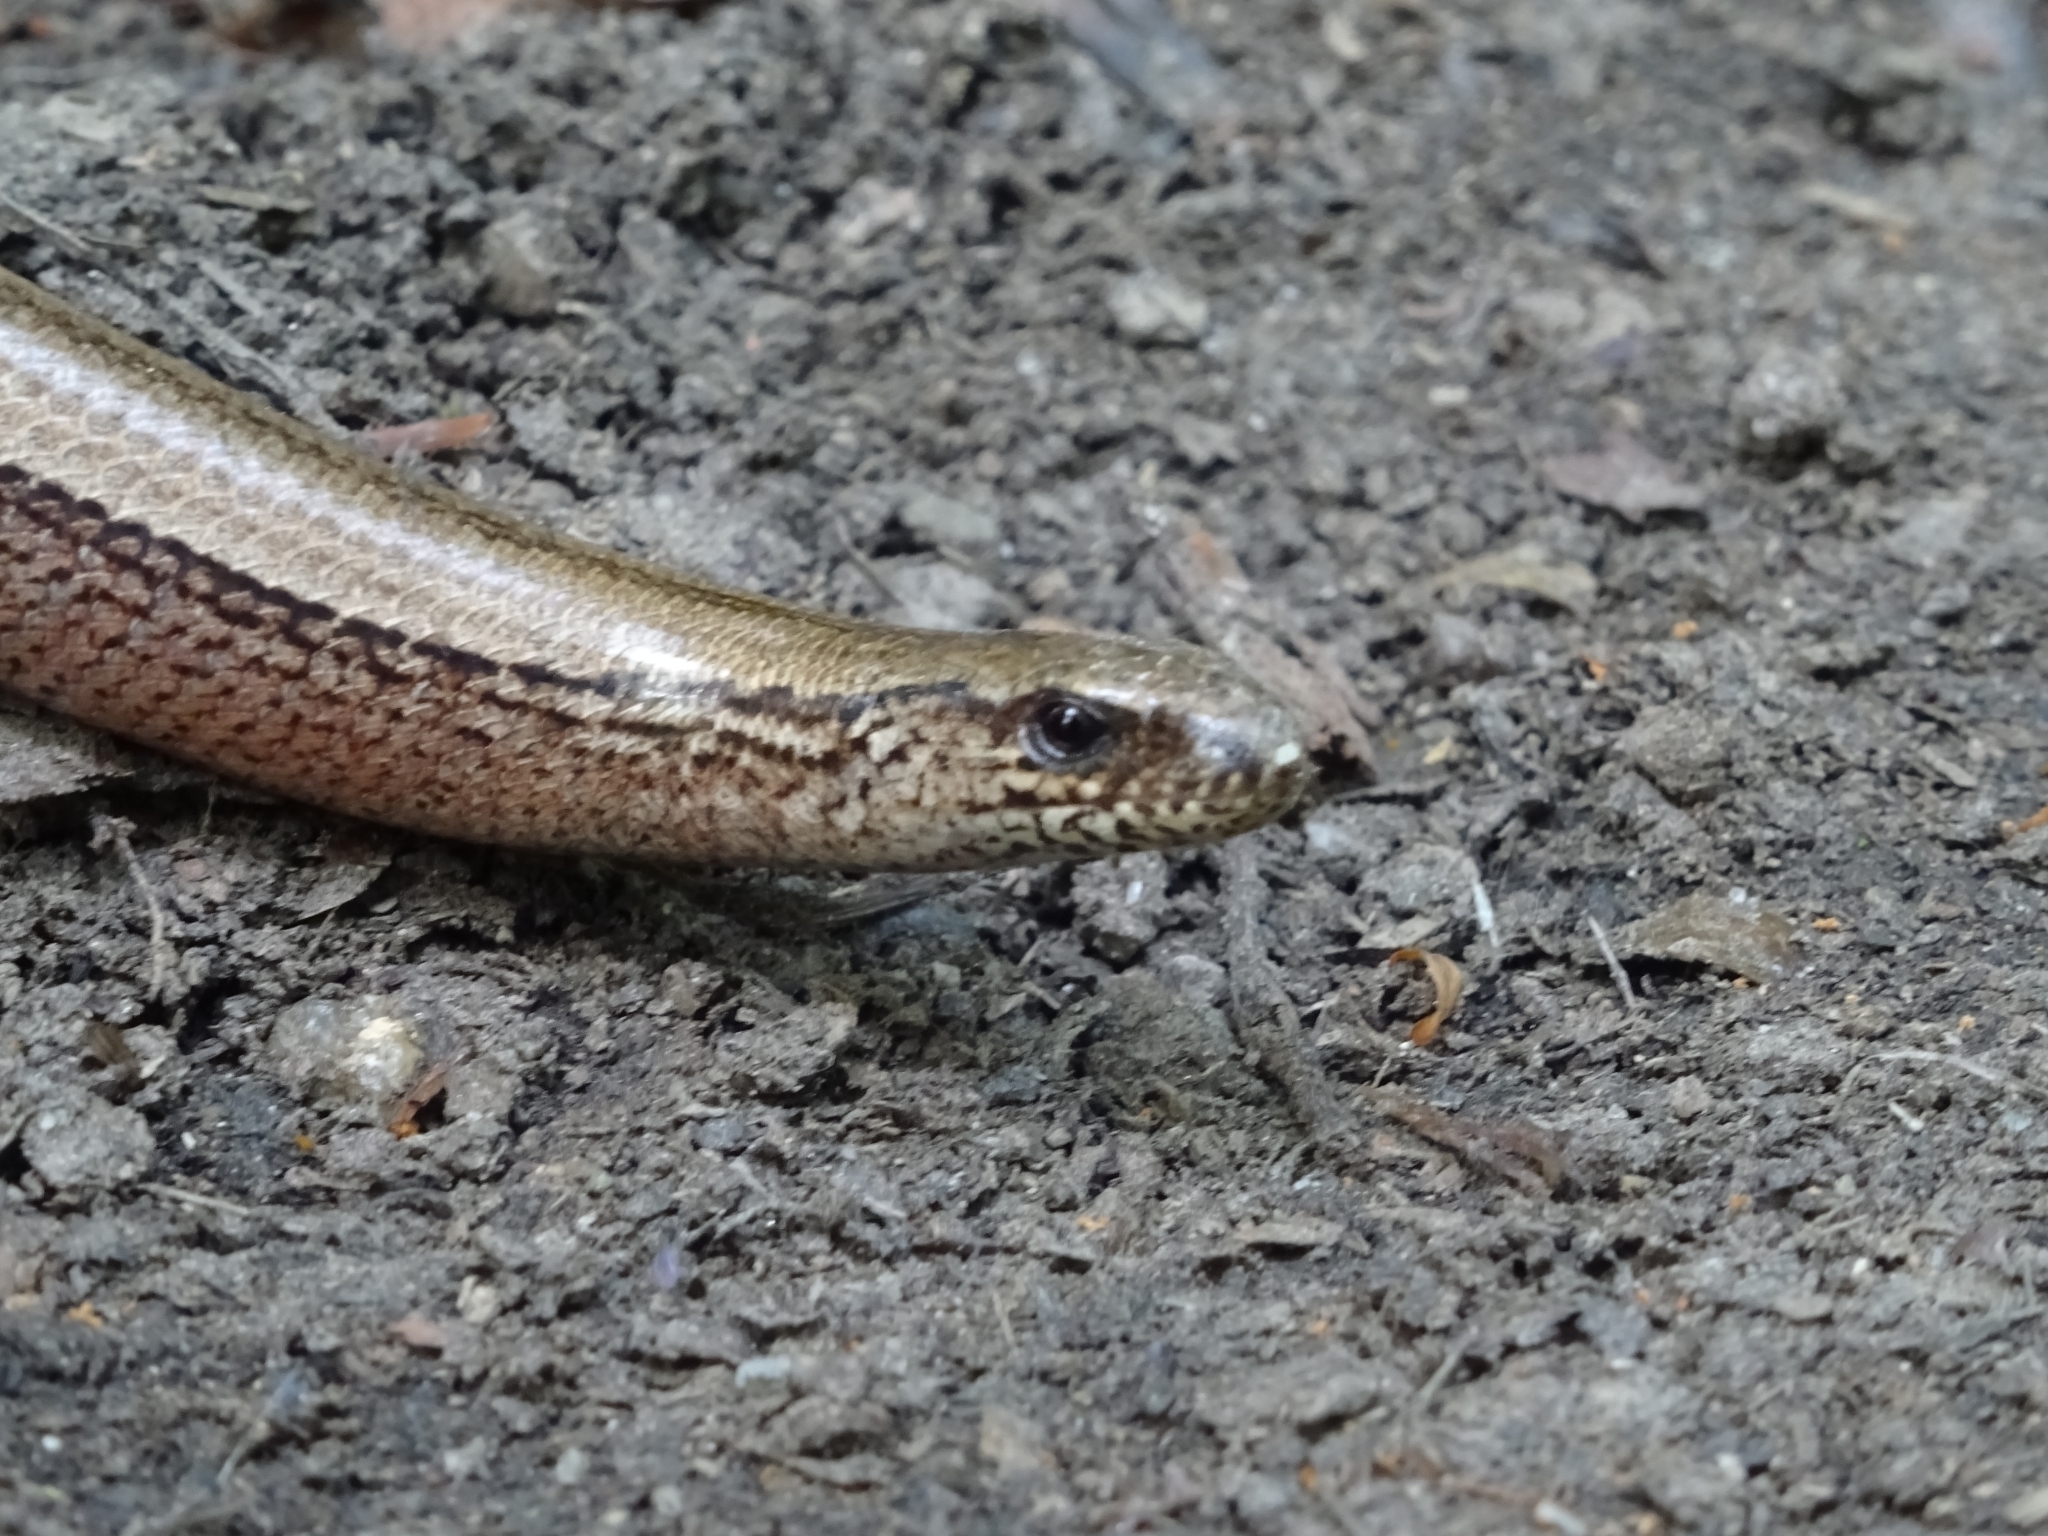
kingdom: Animalia
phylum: Chordata
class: Squamata
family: Anguidae
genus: Anguis
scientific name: Anguis fragilis
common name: Slow worm
